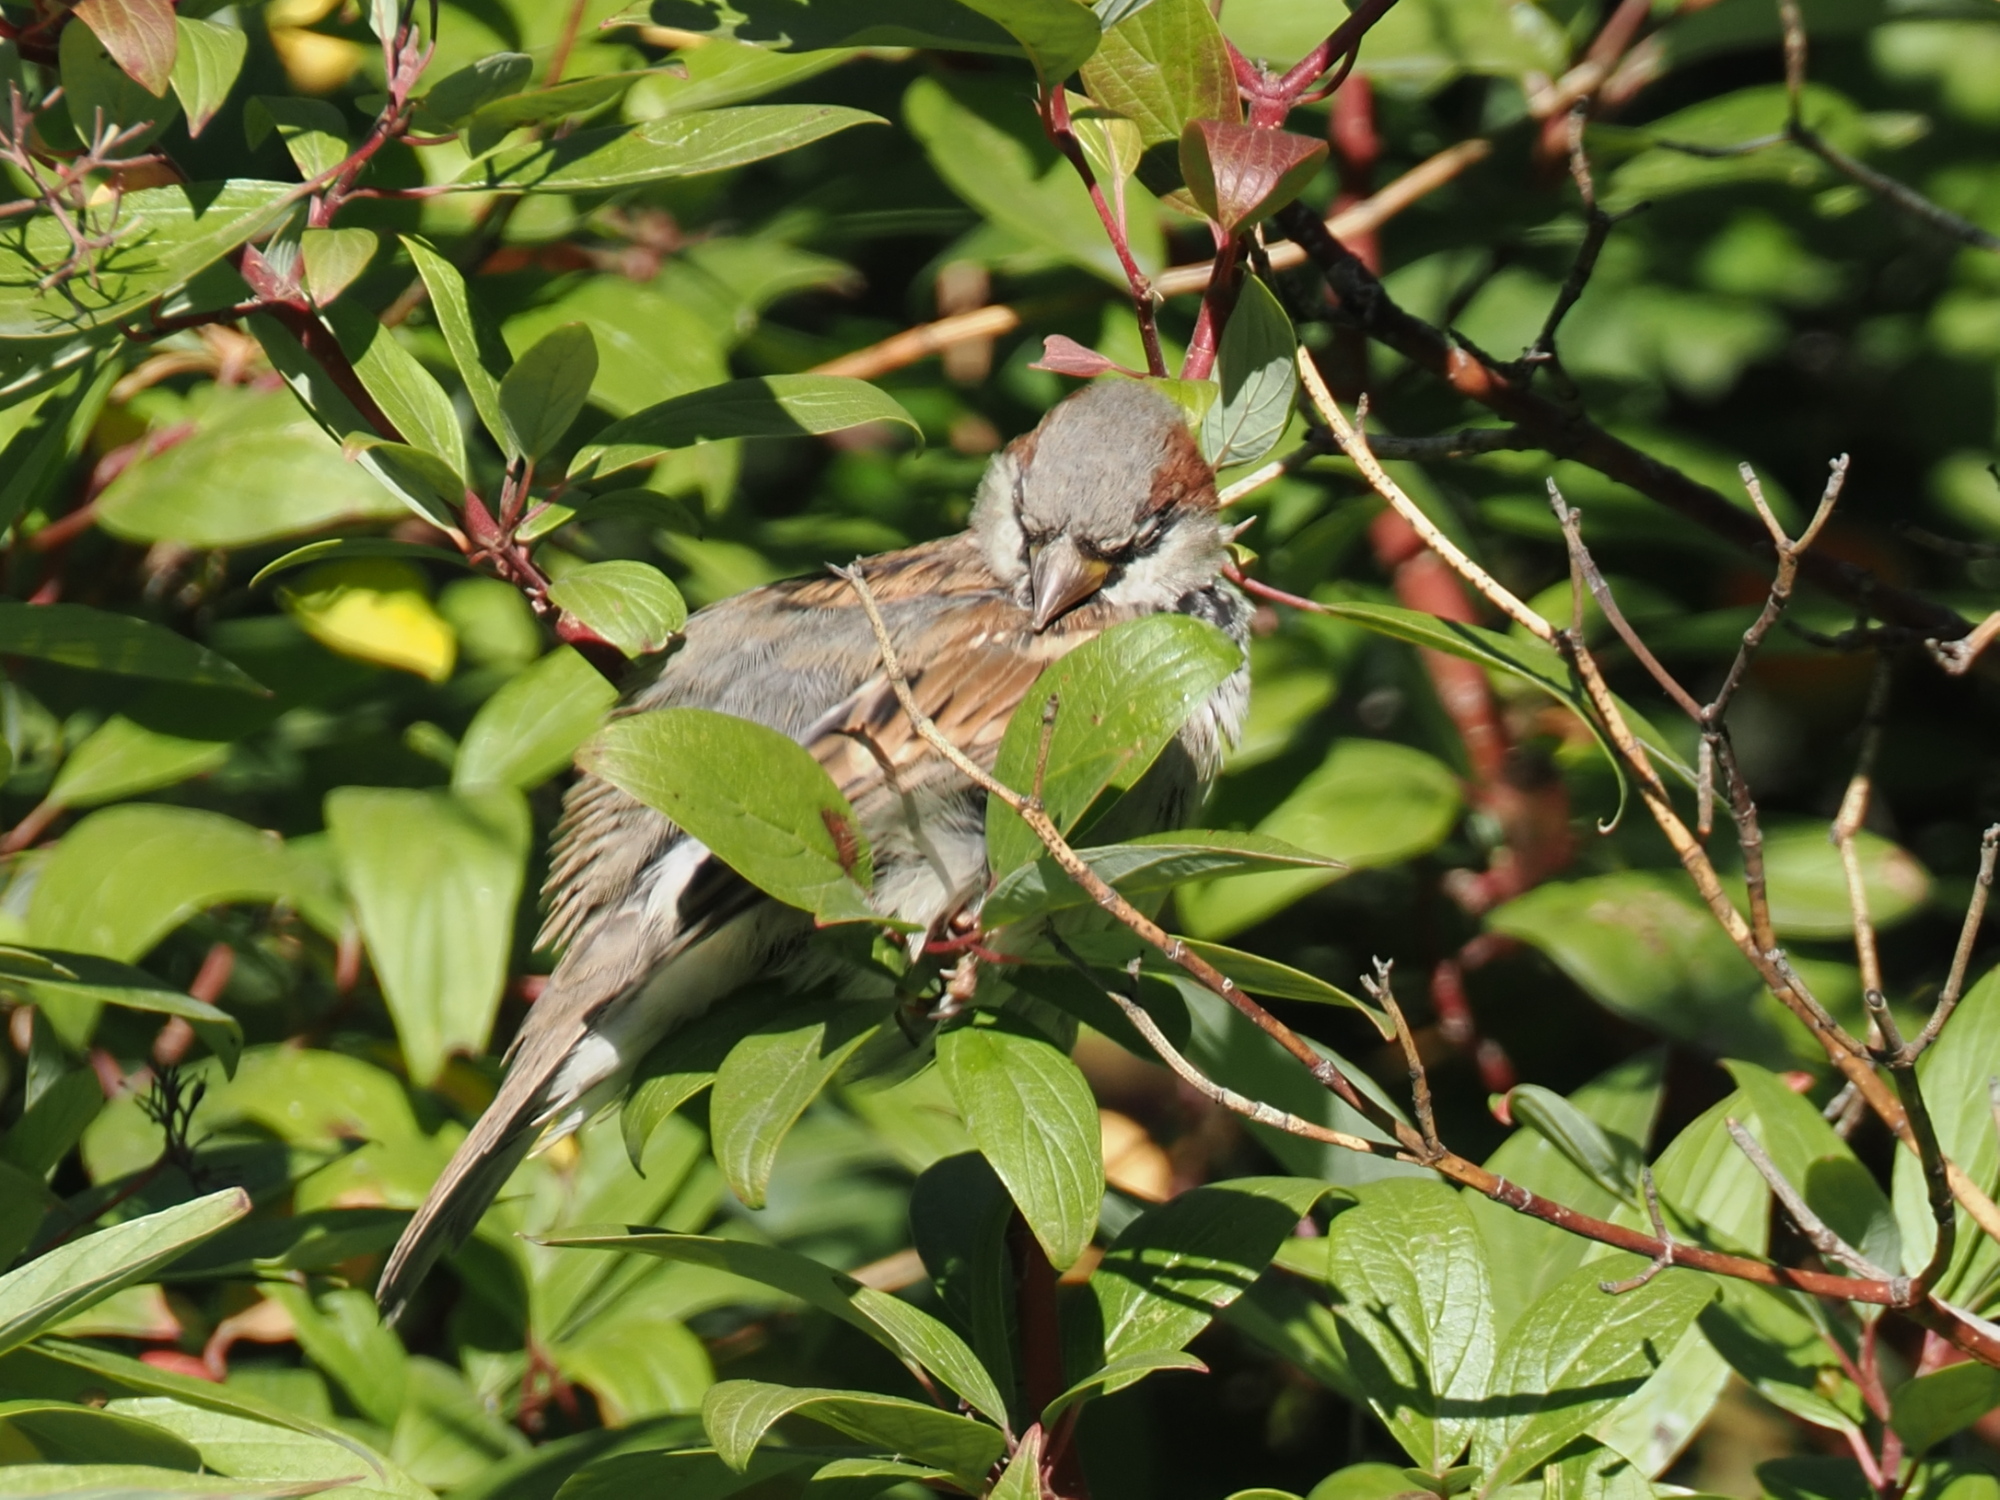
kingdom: Animalia
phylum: Chordata
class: Aves
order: Passeriformes
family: Passeridae
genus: Passer
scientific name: Passer domesticus
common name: House sparrow
